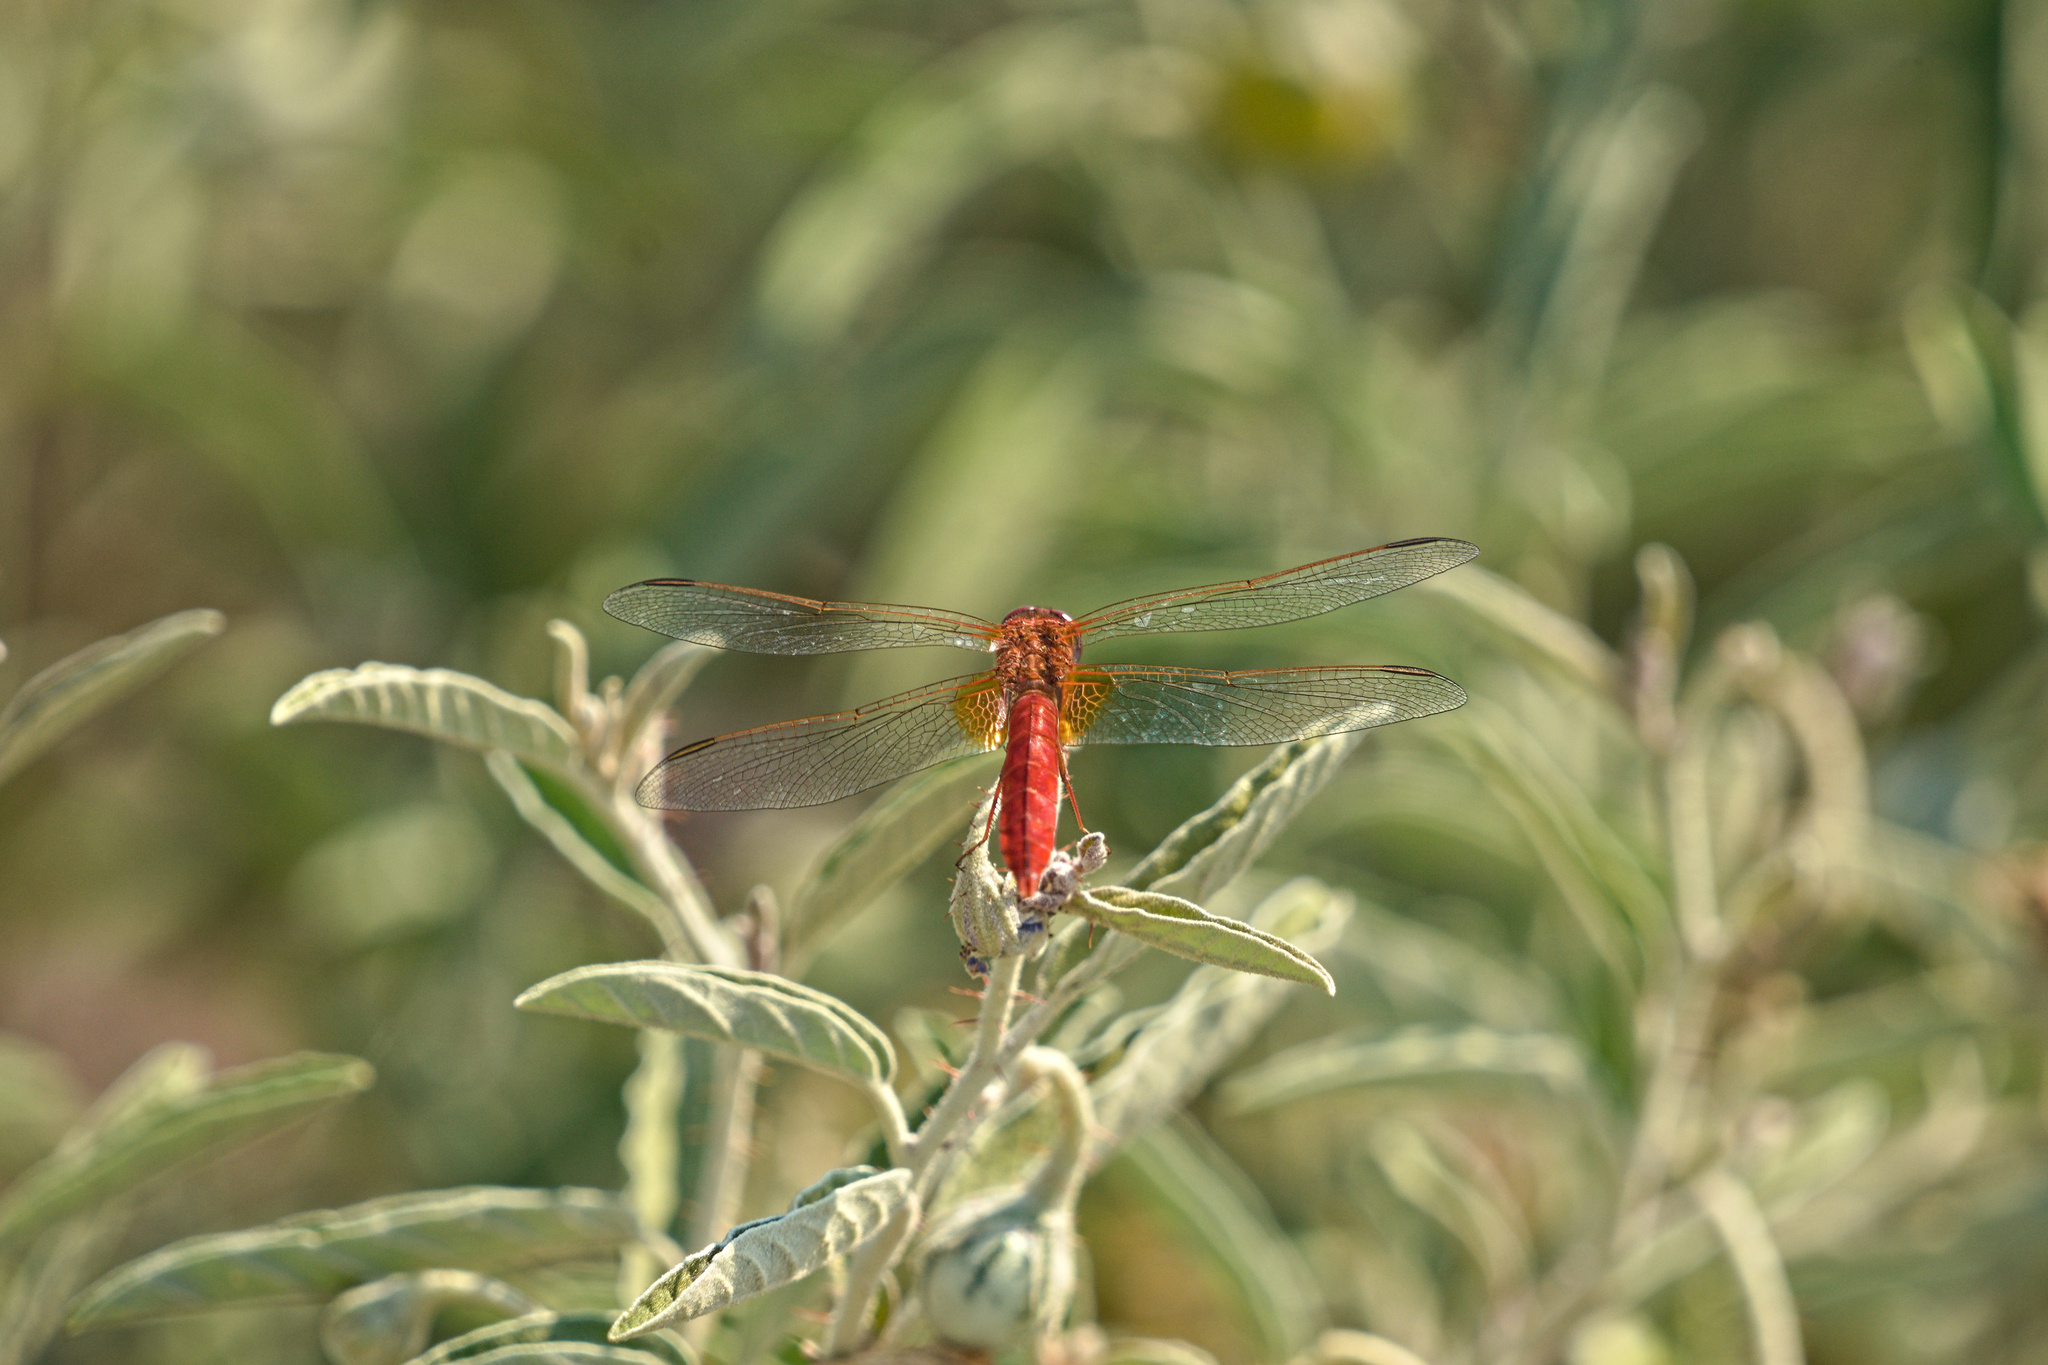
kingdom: Animalia
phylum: Arthropoda
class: Insecta
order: Odonata
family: Libellulidae
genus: Crocothemis
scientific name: Crocothemis erythraea
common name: Scarlet dragonfly
